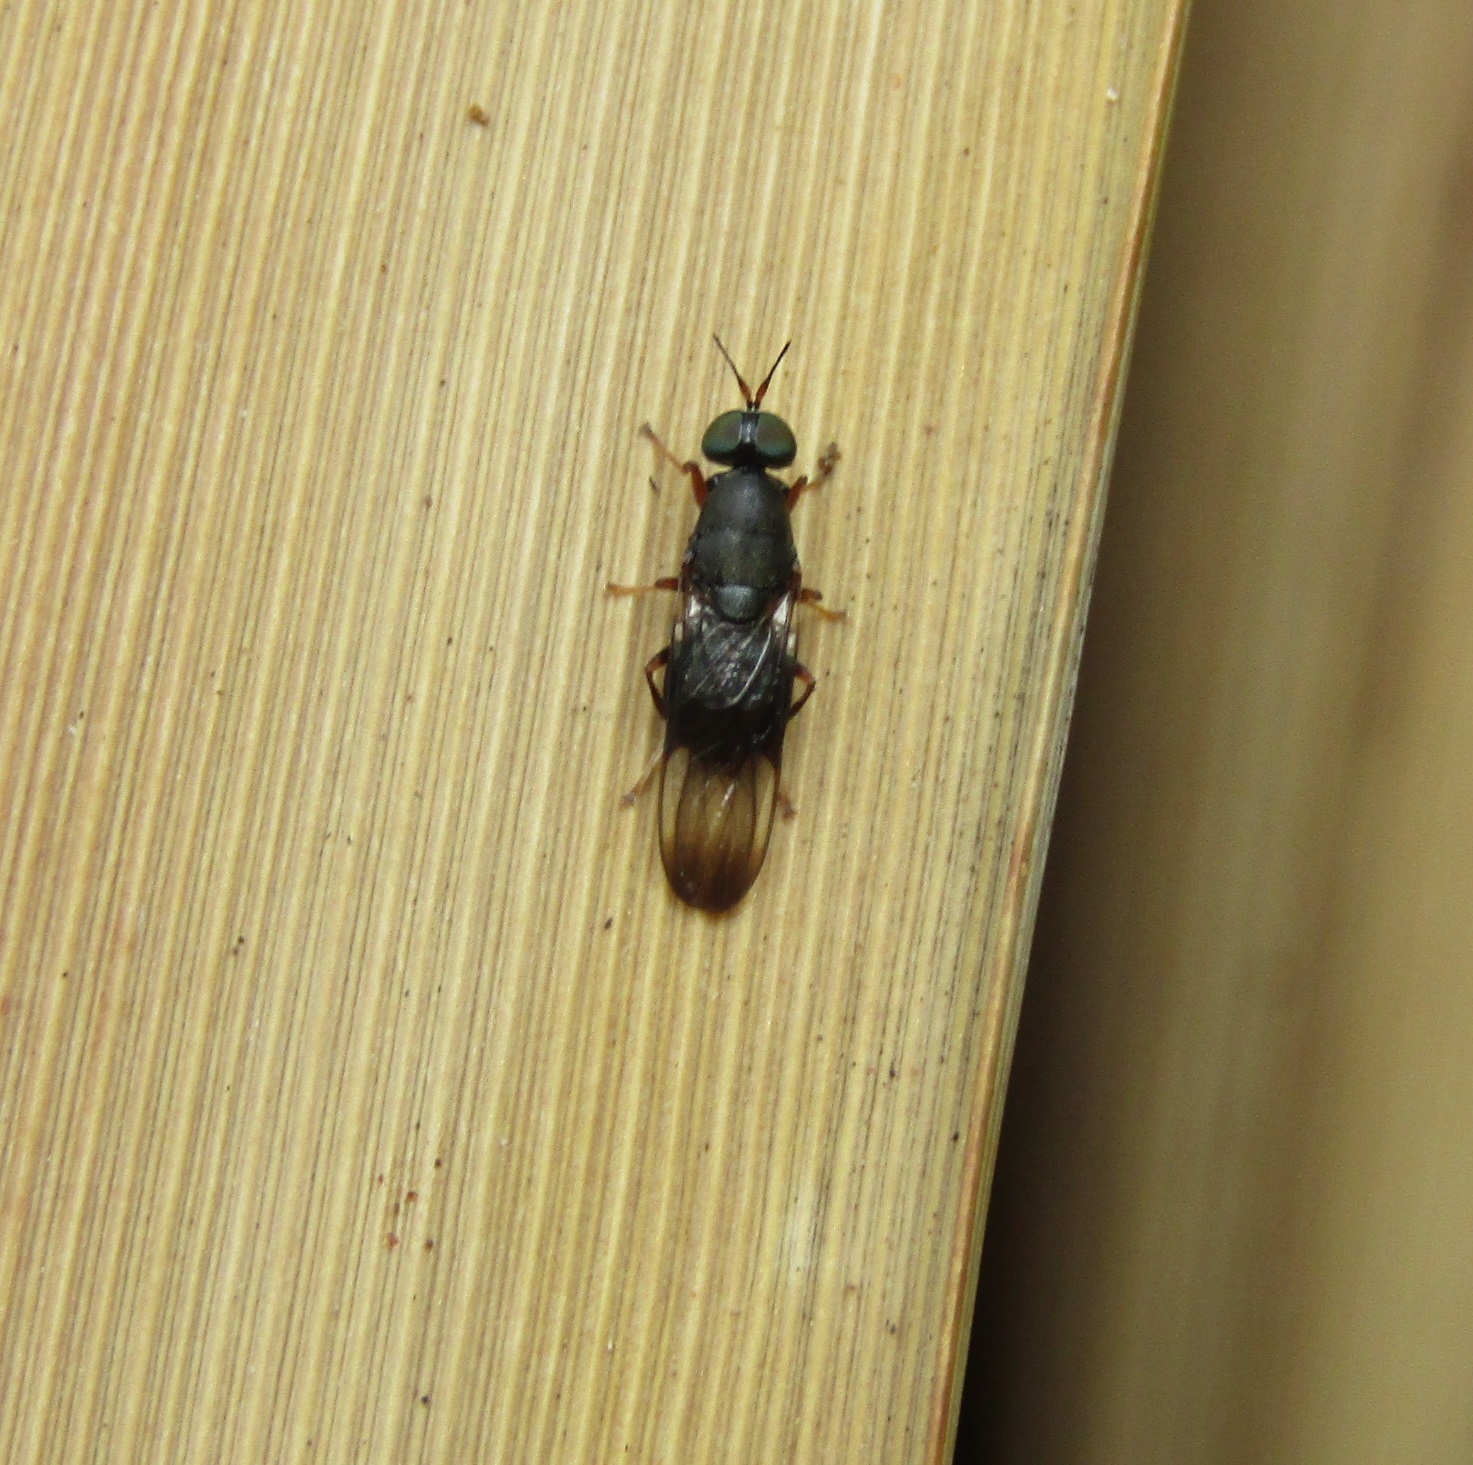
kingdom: Animalia
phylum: Arthropoda
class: Insecta
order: Diptera
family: Stratiomyidae
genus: Dysbiota
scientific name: Dysbiota peregrina
